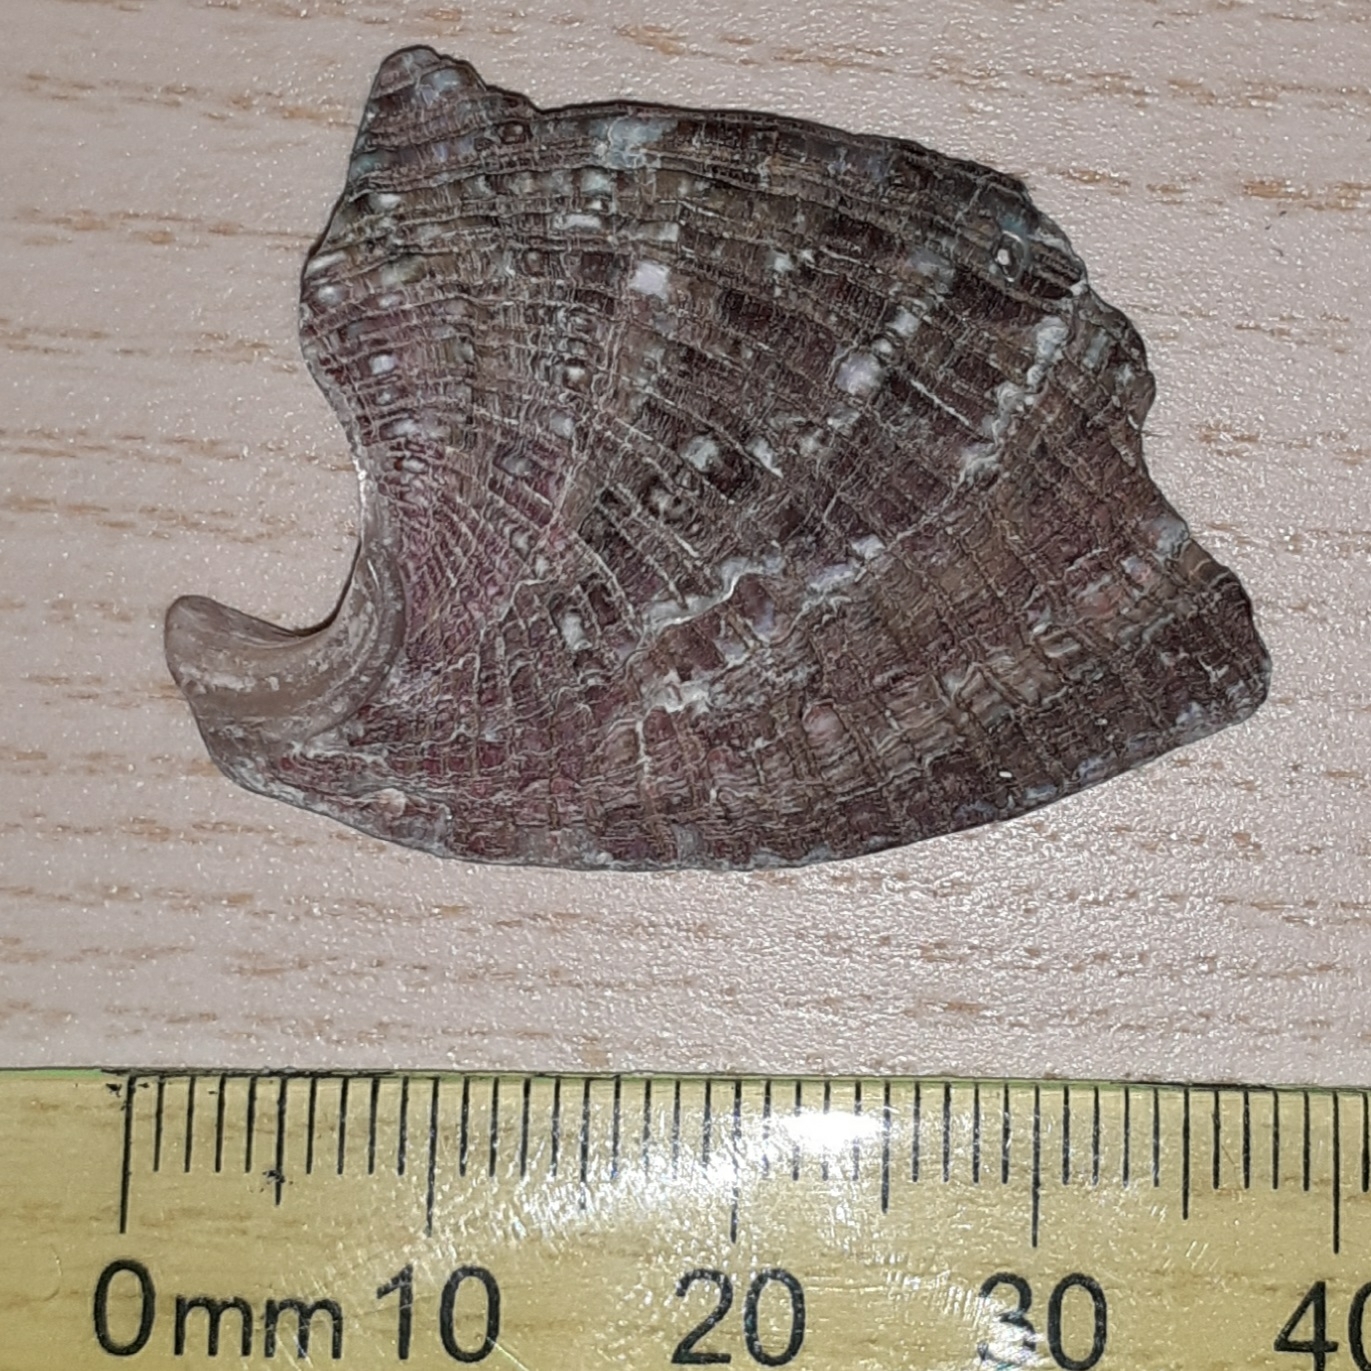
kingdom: Animalia
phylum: Mollusca
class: Gastropoda
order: Lepetellida
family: Haliotidae
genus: Haliotis
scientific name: Haliotis tuberculata
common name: Green ormer
